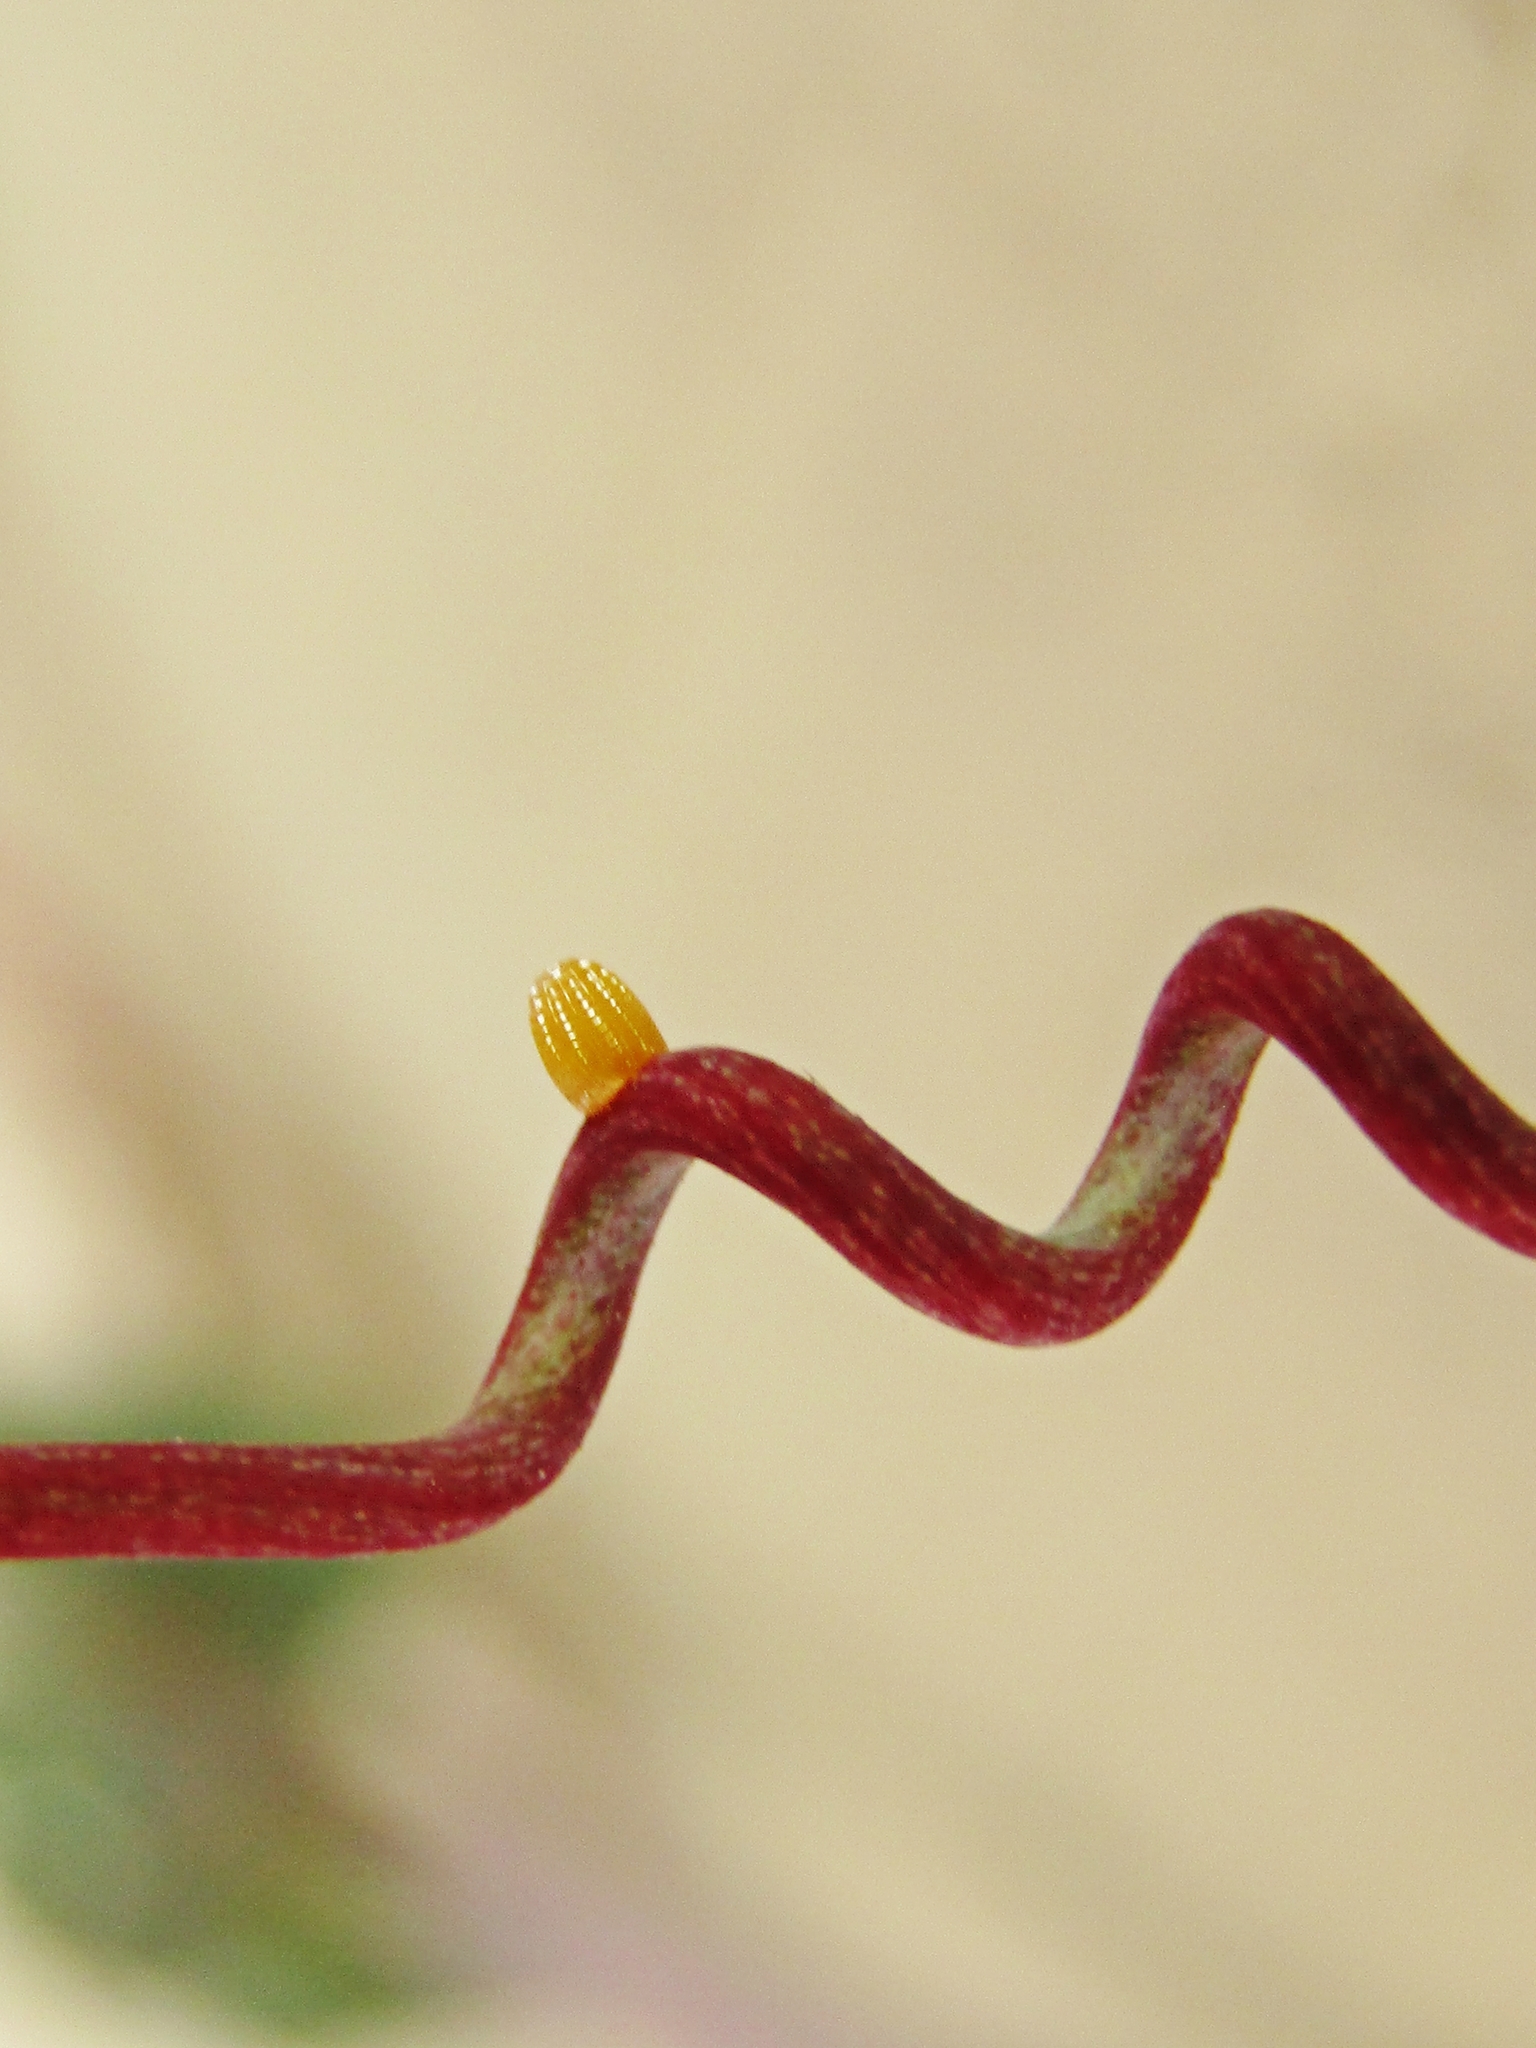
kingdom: Animalia
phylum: Arthropoda
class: Insecta
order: Lepidoptera
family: Nymphalidae
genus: Dione
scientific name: Dione vanillae
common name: Gulf fritillary
